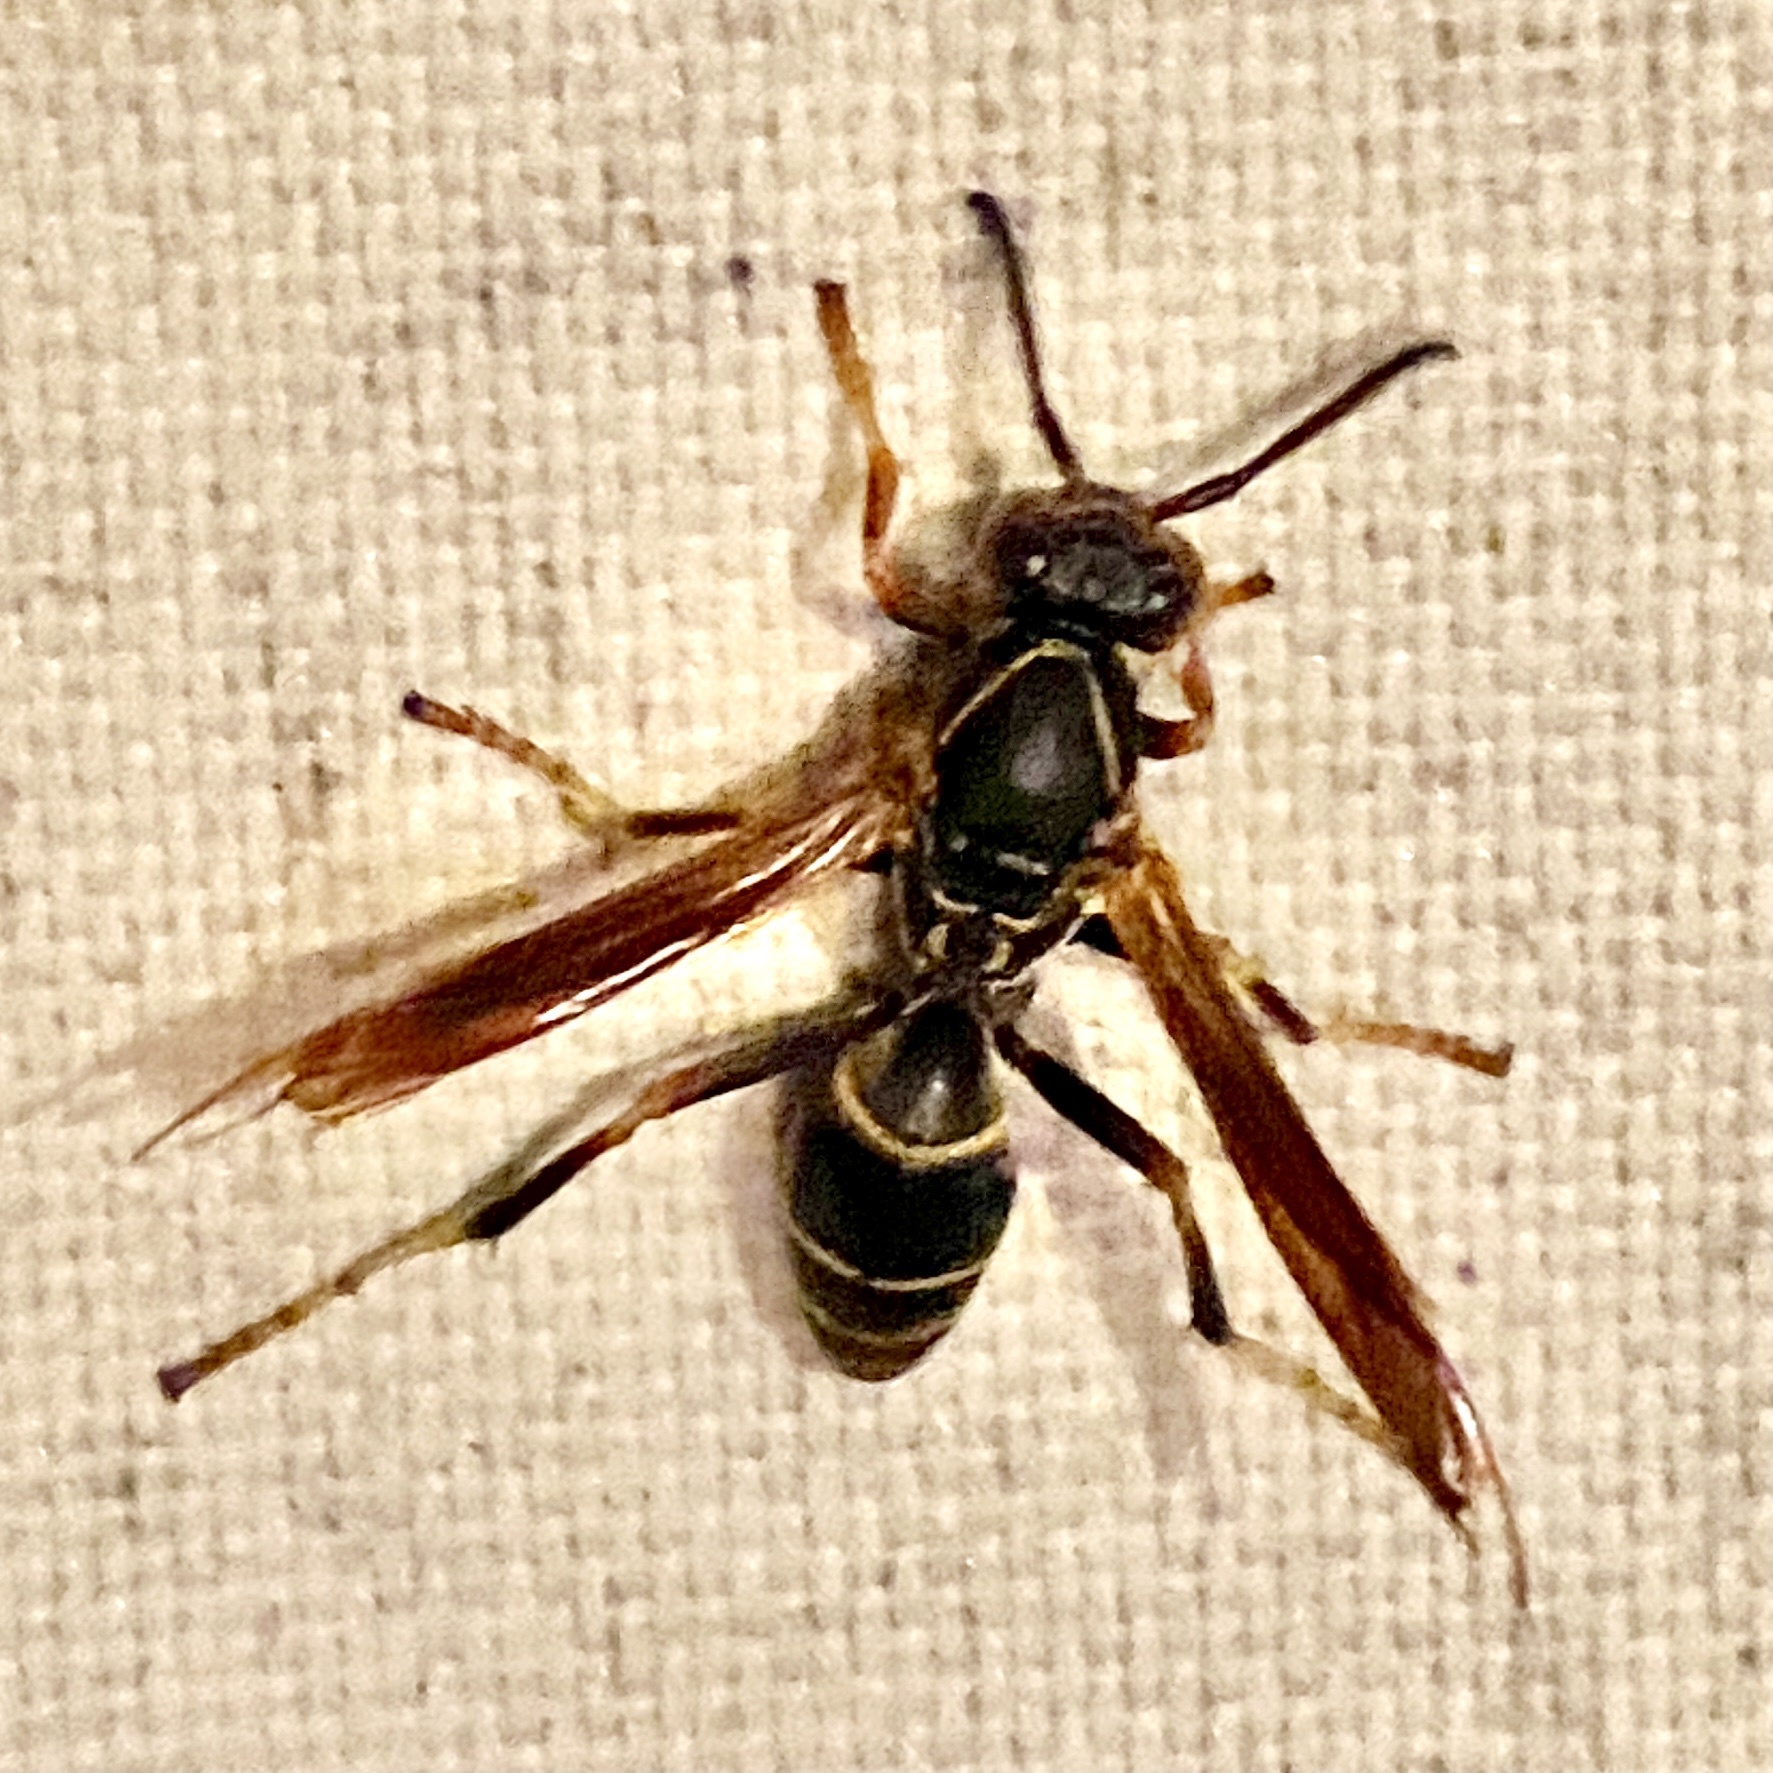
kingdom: Animalia
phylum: Arthropoda
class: Insecta
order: Hymenoptera
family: Eumenidae
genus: Polistes
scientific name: Polistes fuscatus
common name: Dark paper wasp
